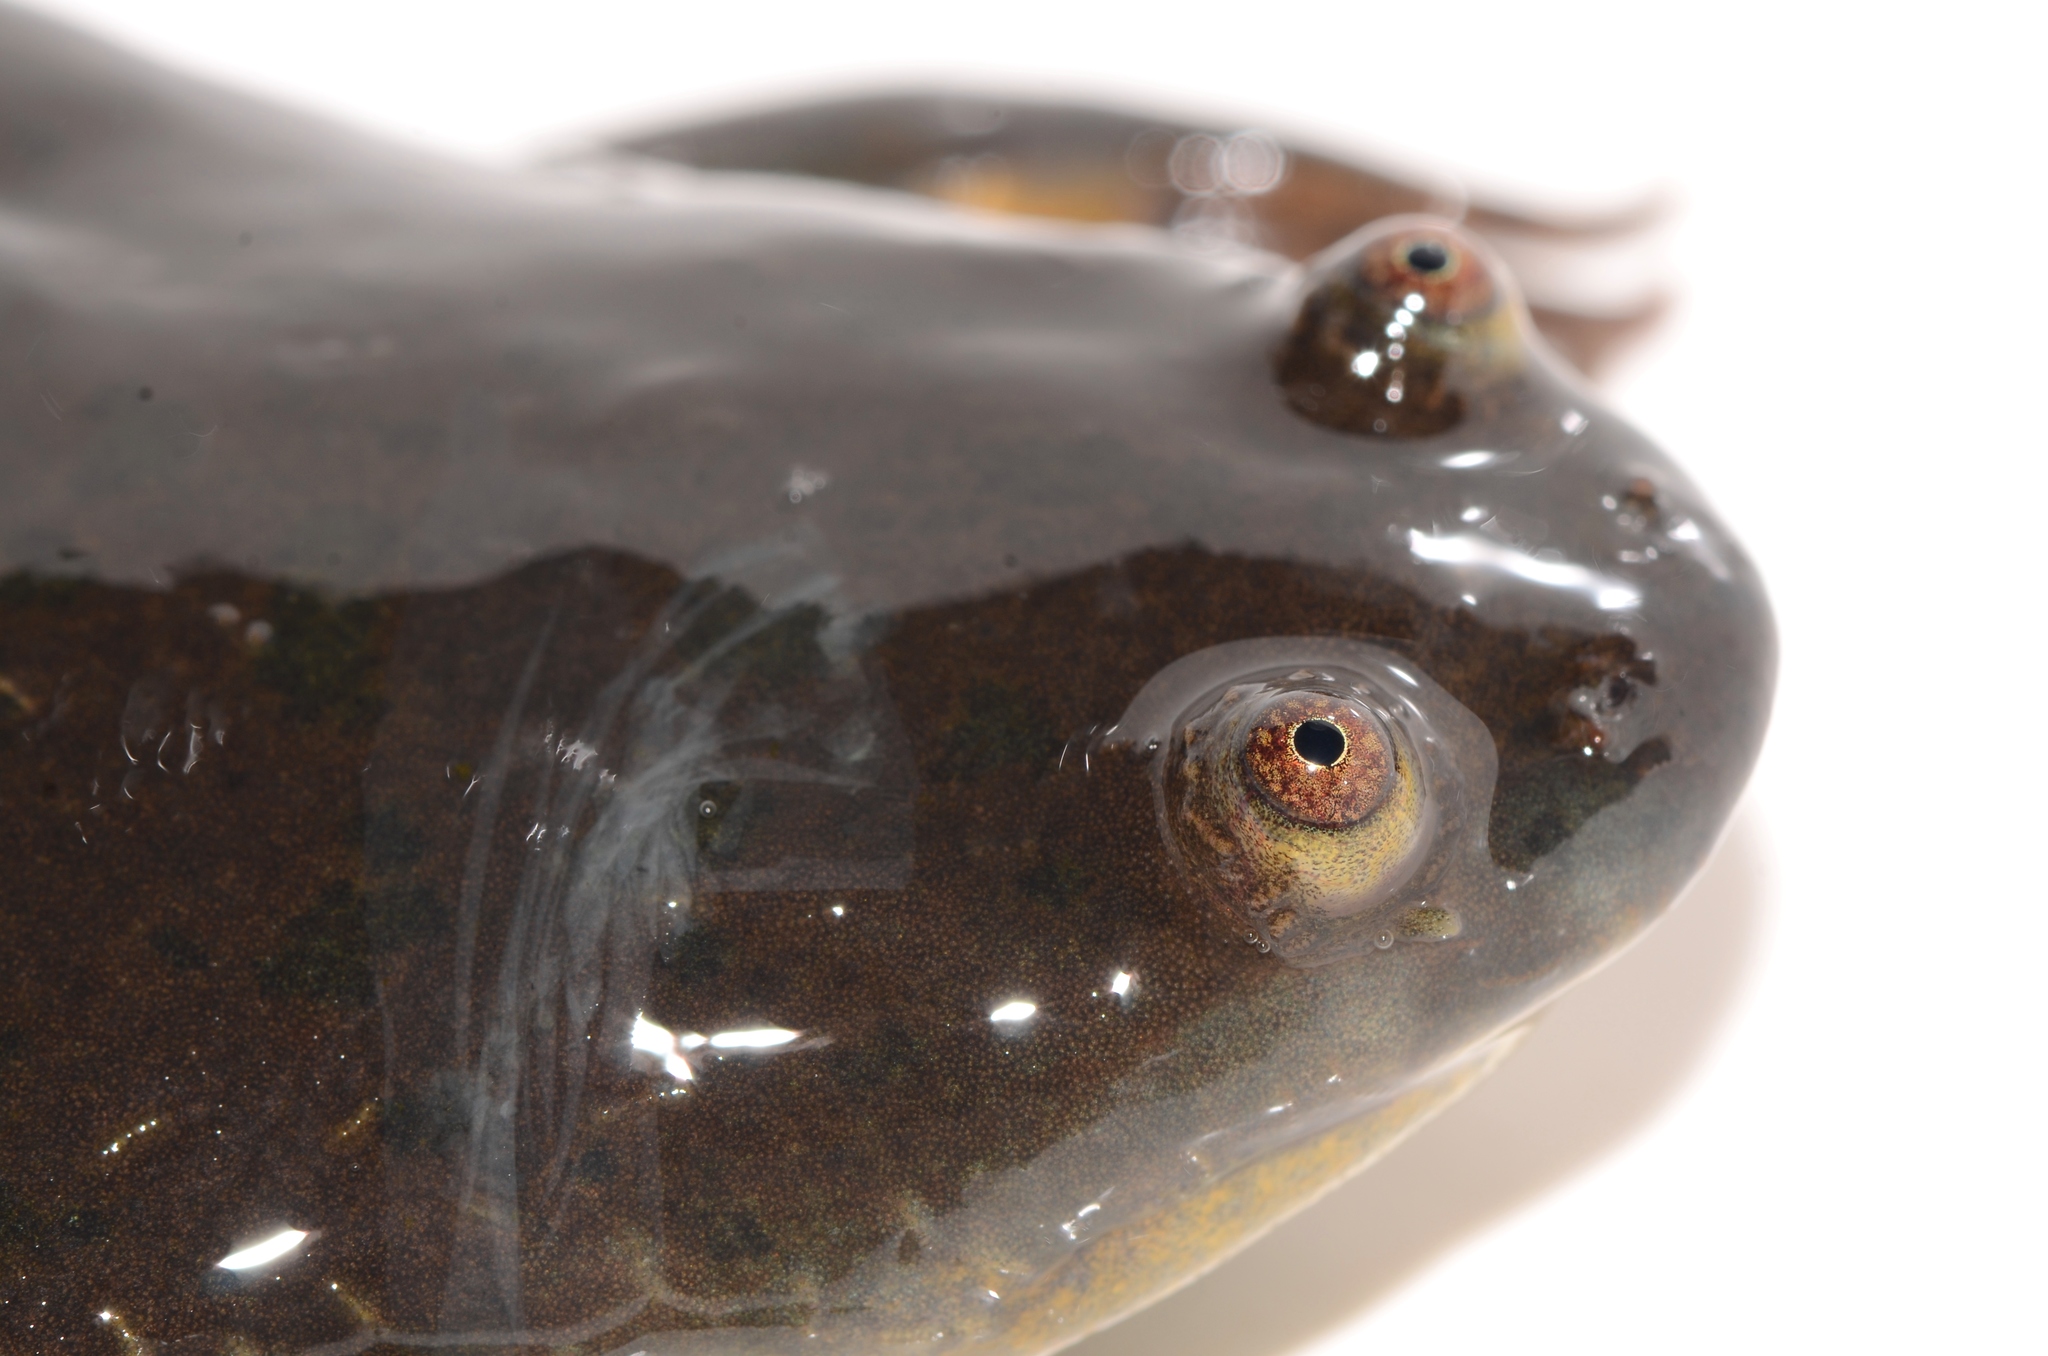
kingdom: Animalia
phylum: Chordata
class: Amphibia
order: Anura
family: Pipidae
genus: Xenopus
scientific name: Xenopus borealis
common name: Marsabit clawed frog
